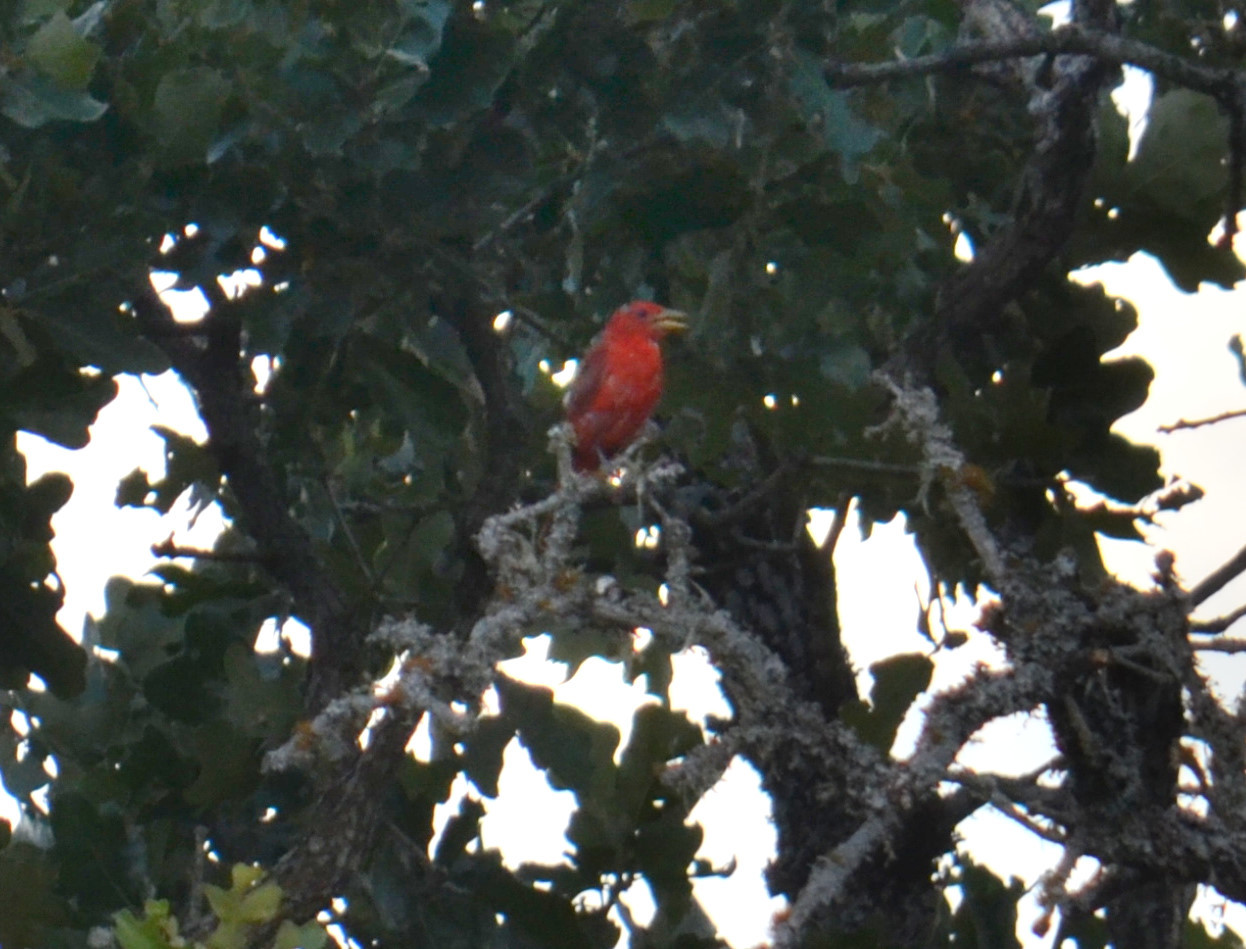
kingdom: Animalia
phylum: Chordata
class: Aves
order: Passeriformes
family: Cardinalidae
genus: Piranga
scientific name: Piranga rubra
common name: Summer tanager
